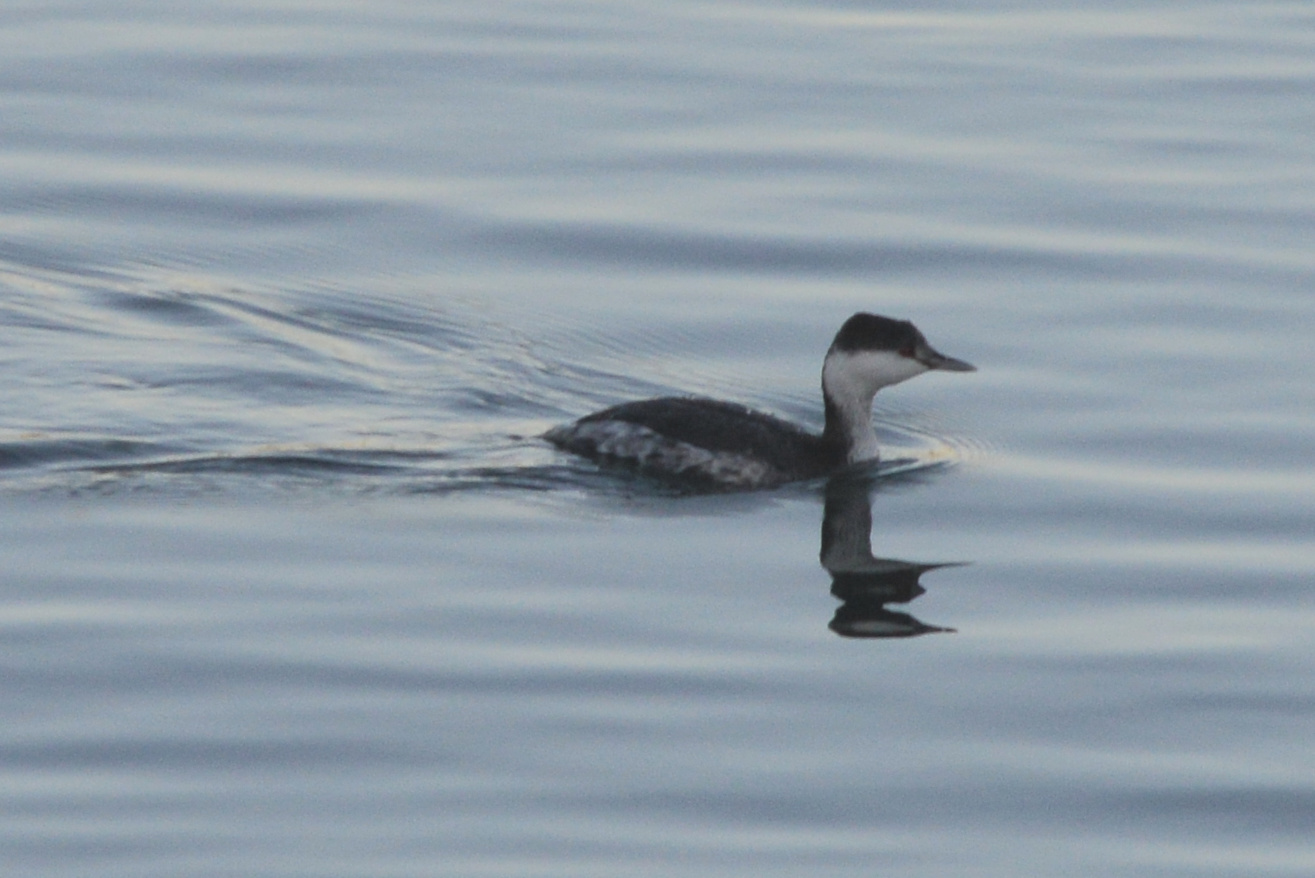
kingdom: Animalia
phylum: Chordata
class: Aves
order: Podicipediformes
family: Podicipedidae
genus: Podiceps
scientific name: Podiceps auritus
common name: Horned grebe
